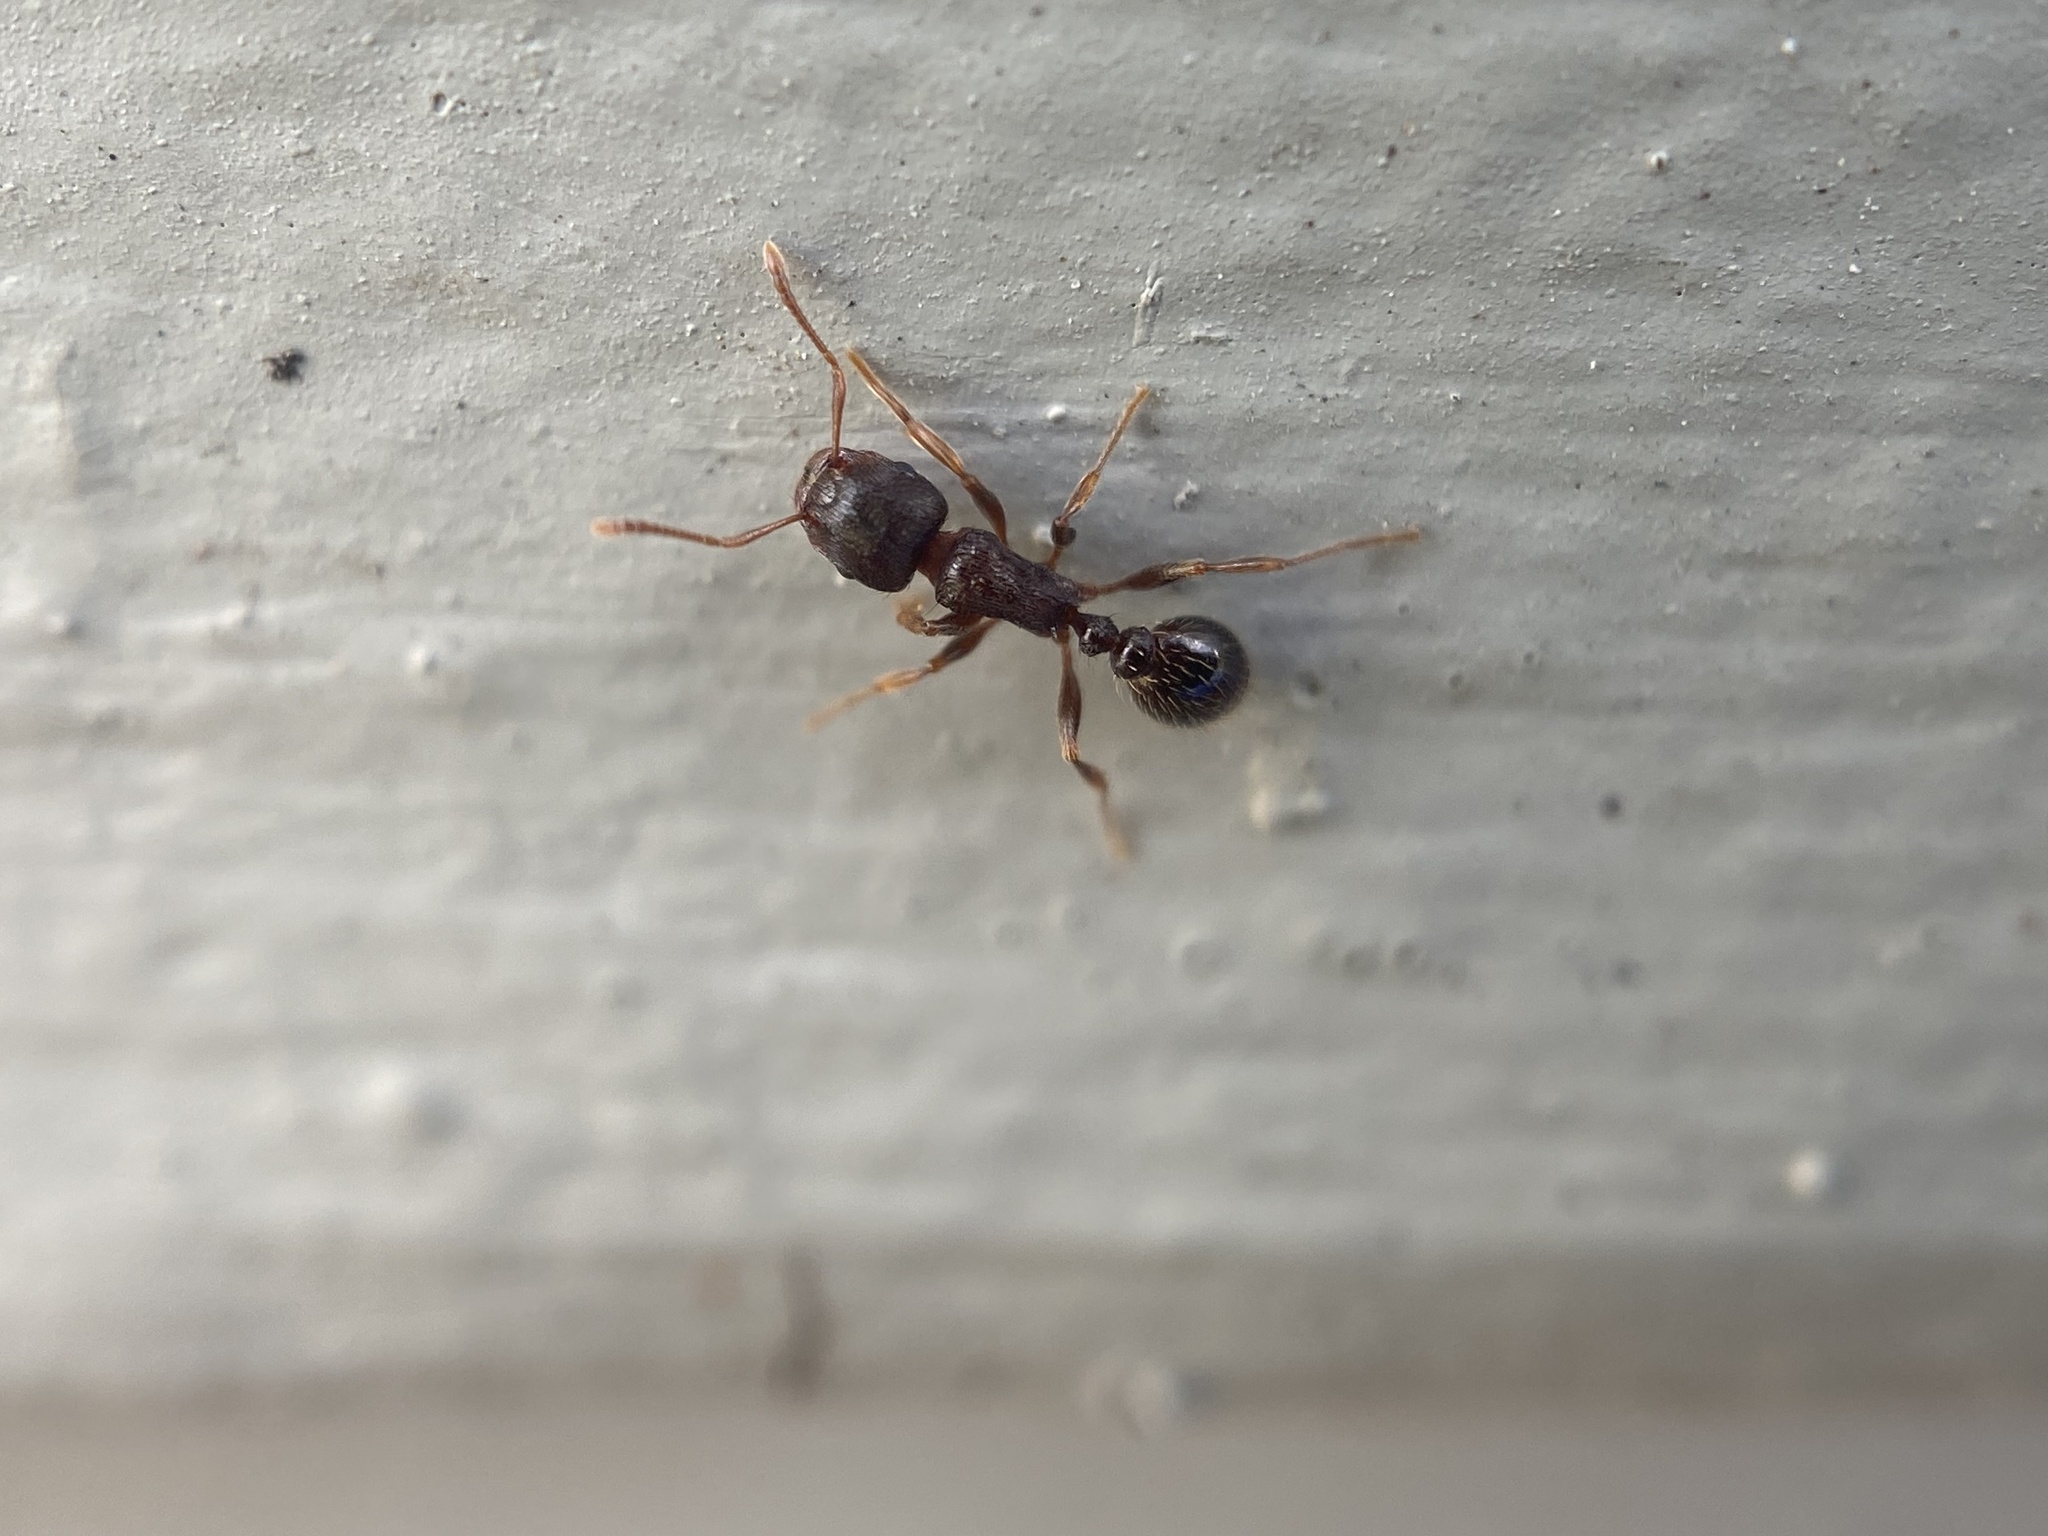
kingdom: Animalia
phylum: Arthropoda
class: Insecta
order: Hymenoptera
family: Formicidae
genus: Tetramorium
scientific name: Tetramorium immigrans
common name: Pavement ant
